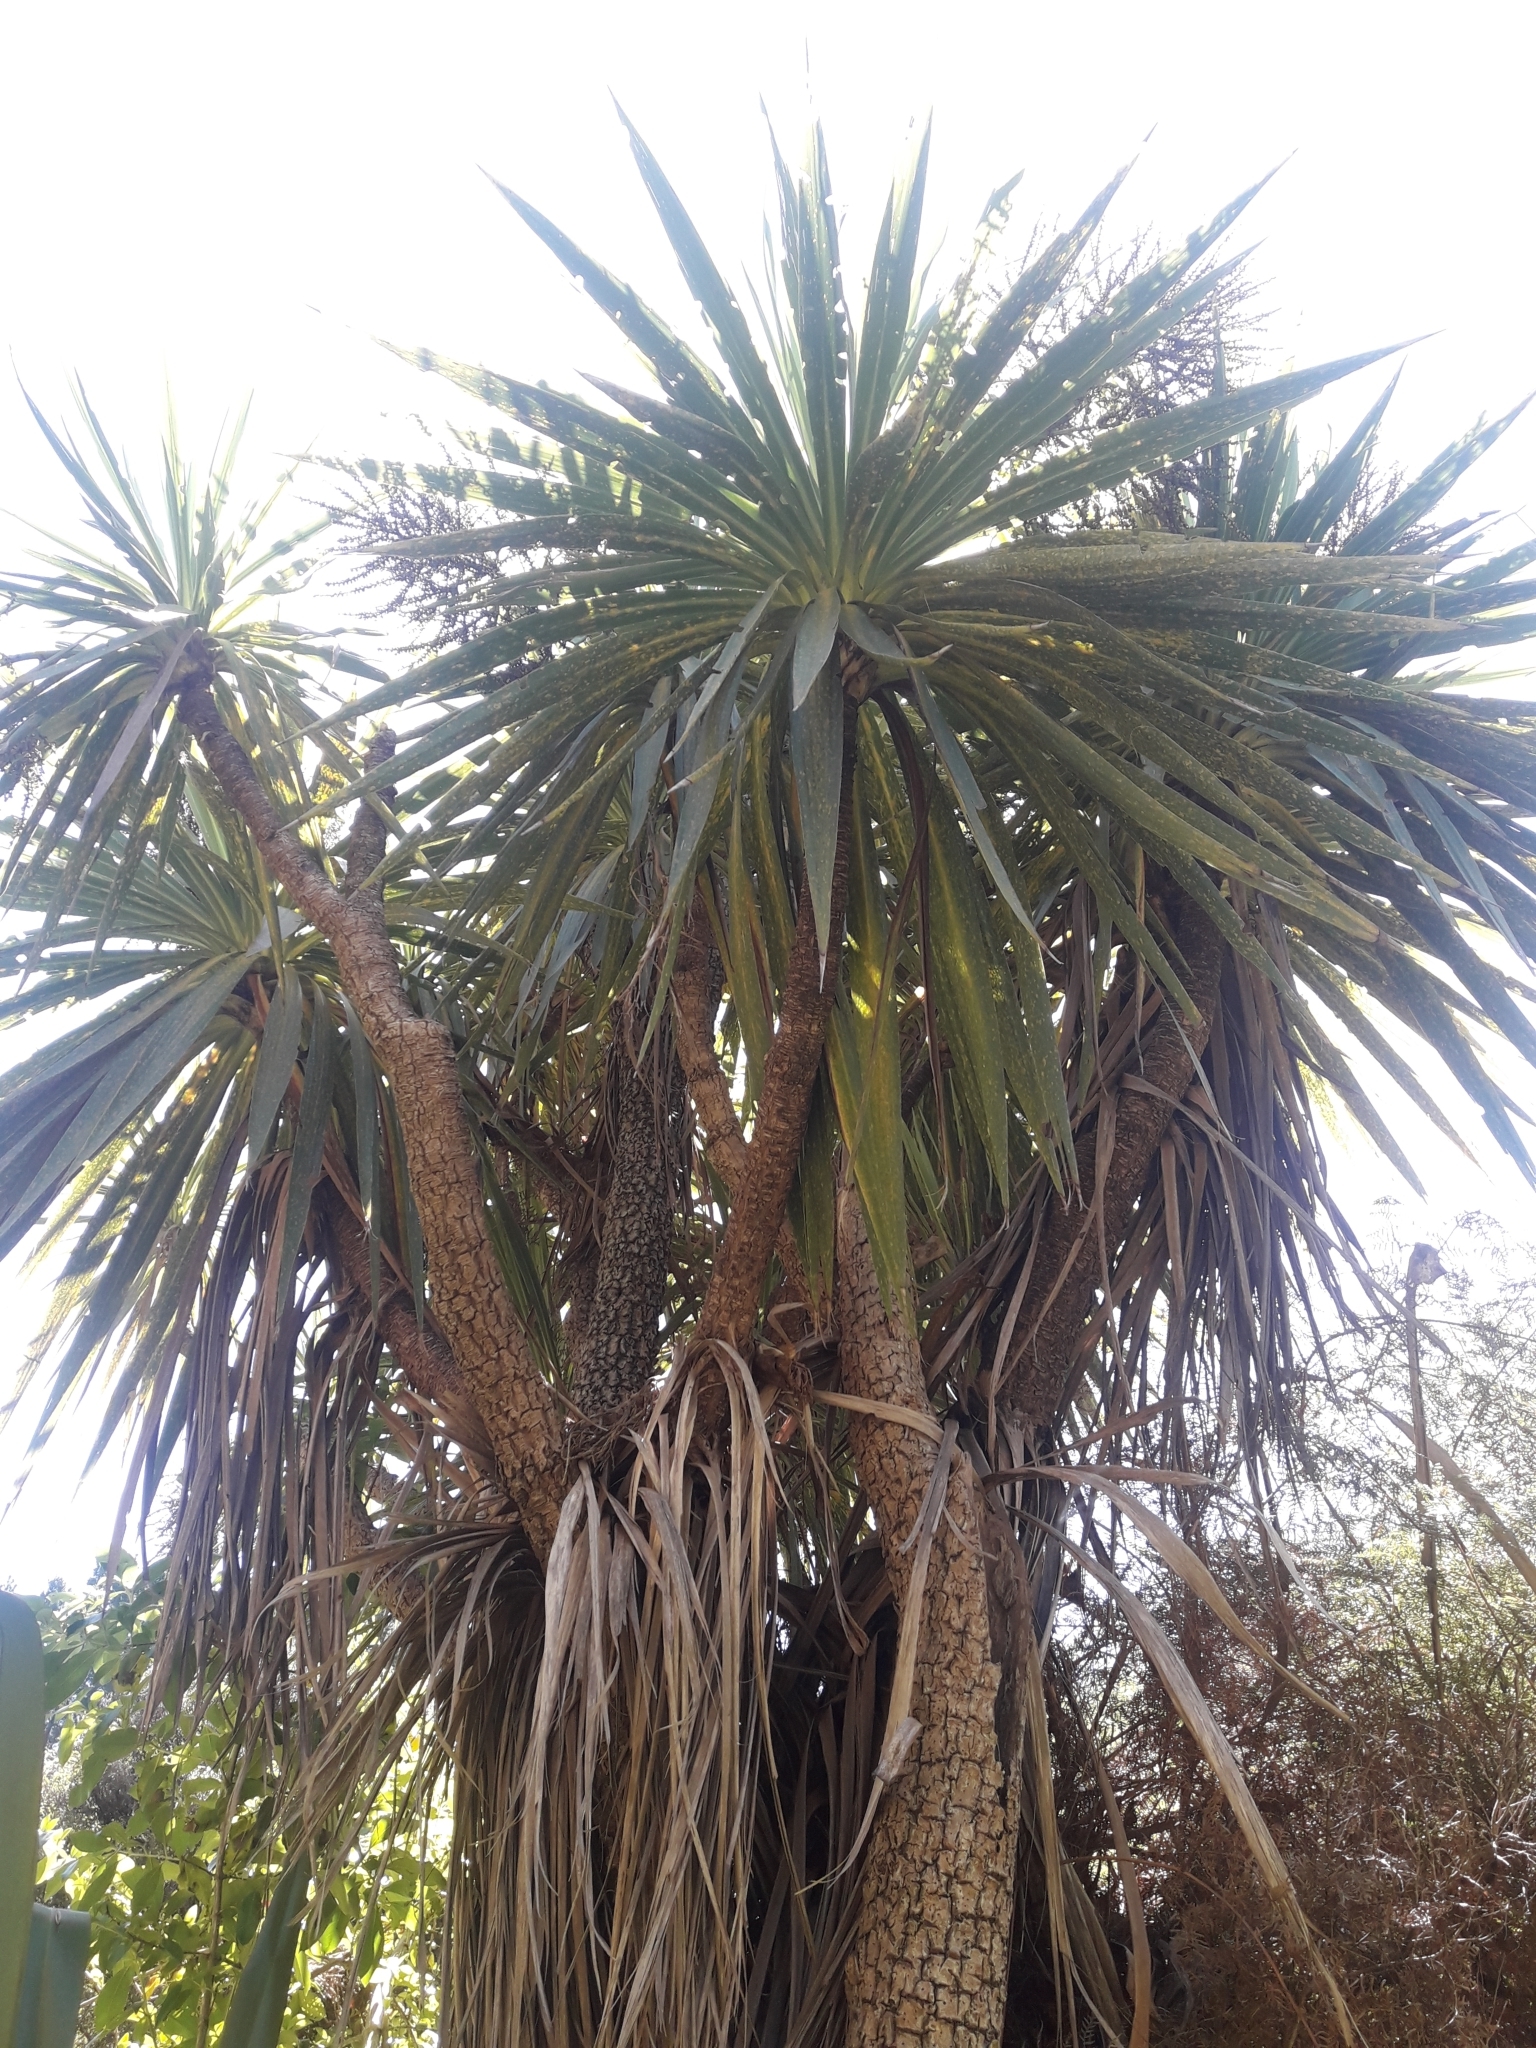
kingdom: Plantae
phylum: Tracheophyta
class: Liliopsida
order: Asparagales
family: Asparagaceae
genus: Cordyline
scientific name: Cordyline australis
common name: Cabbage-palm
